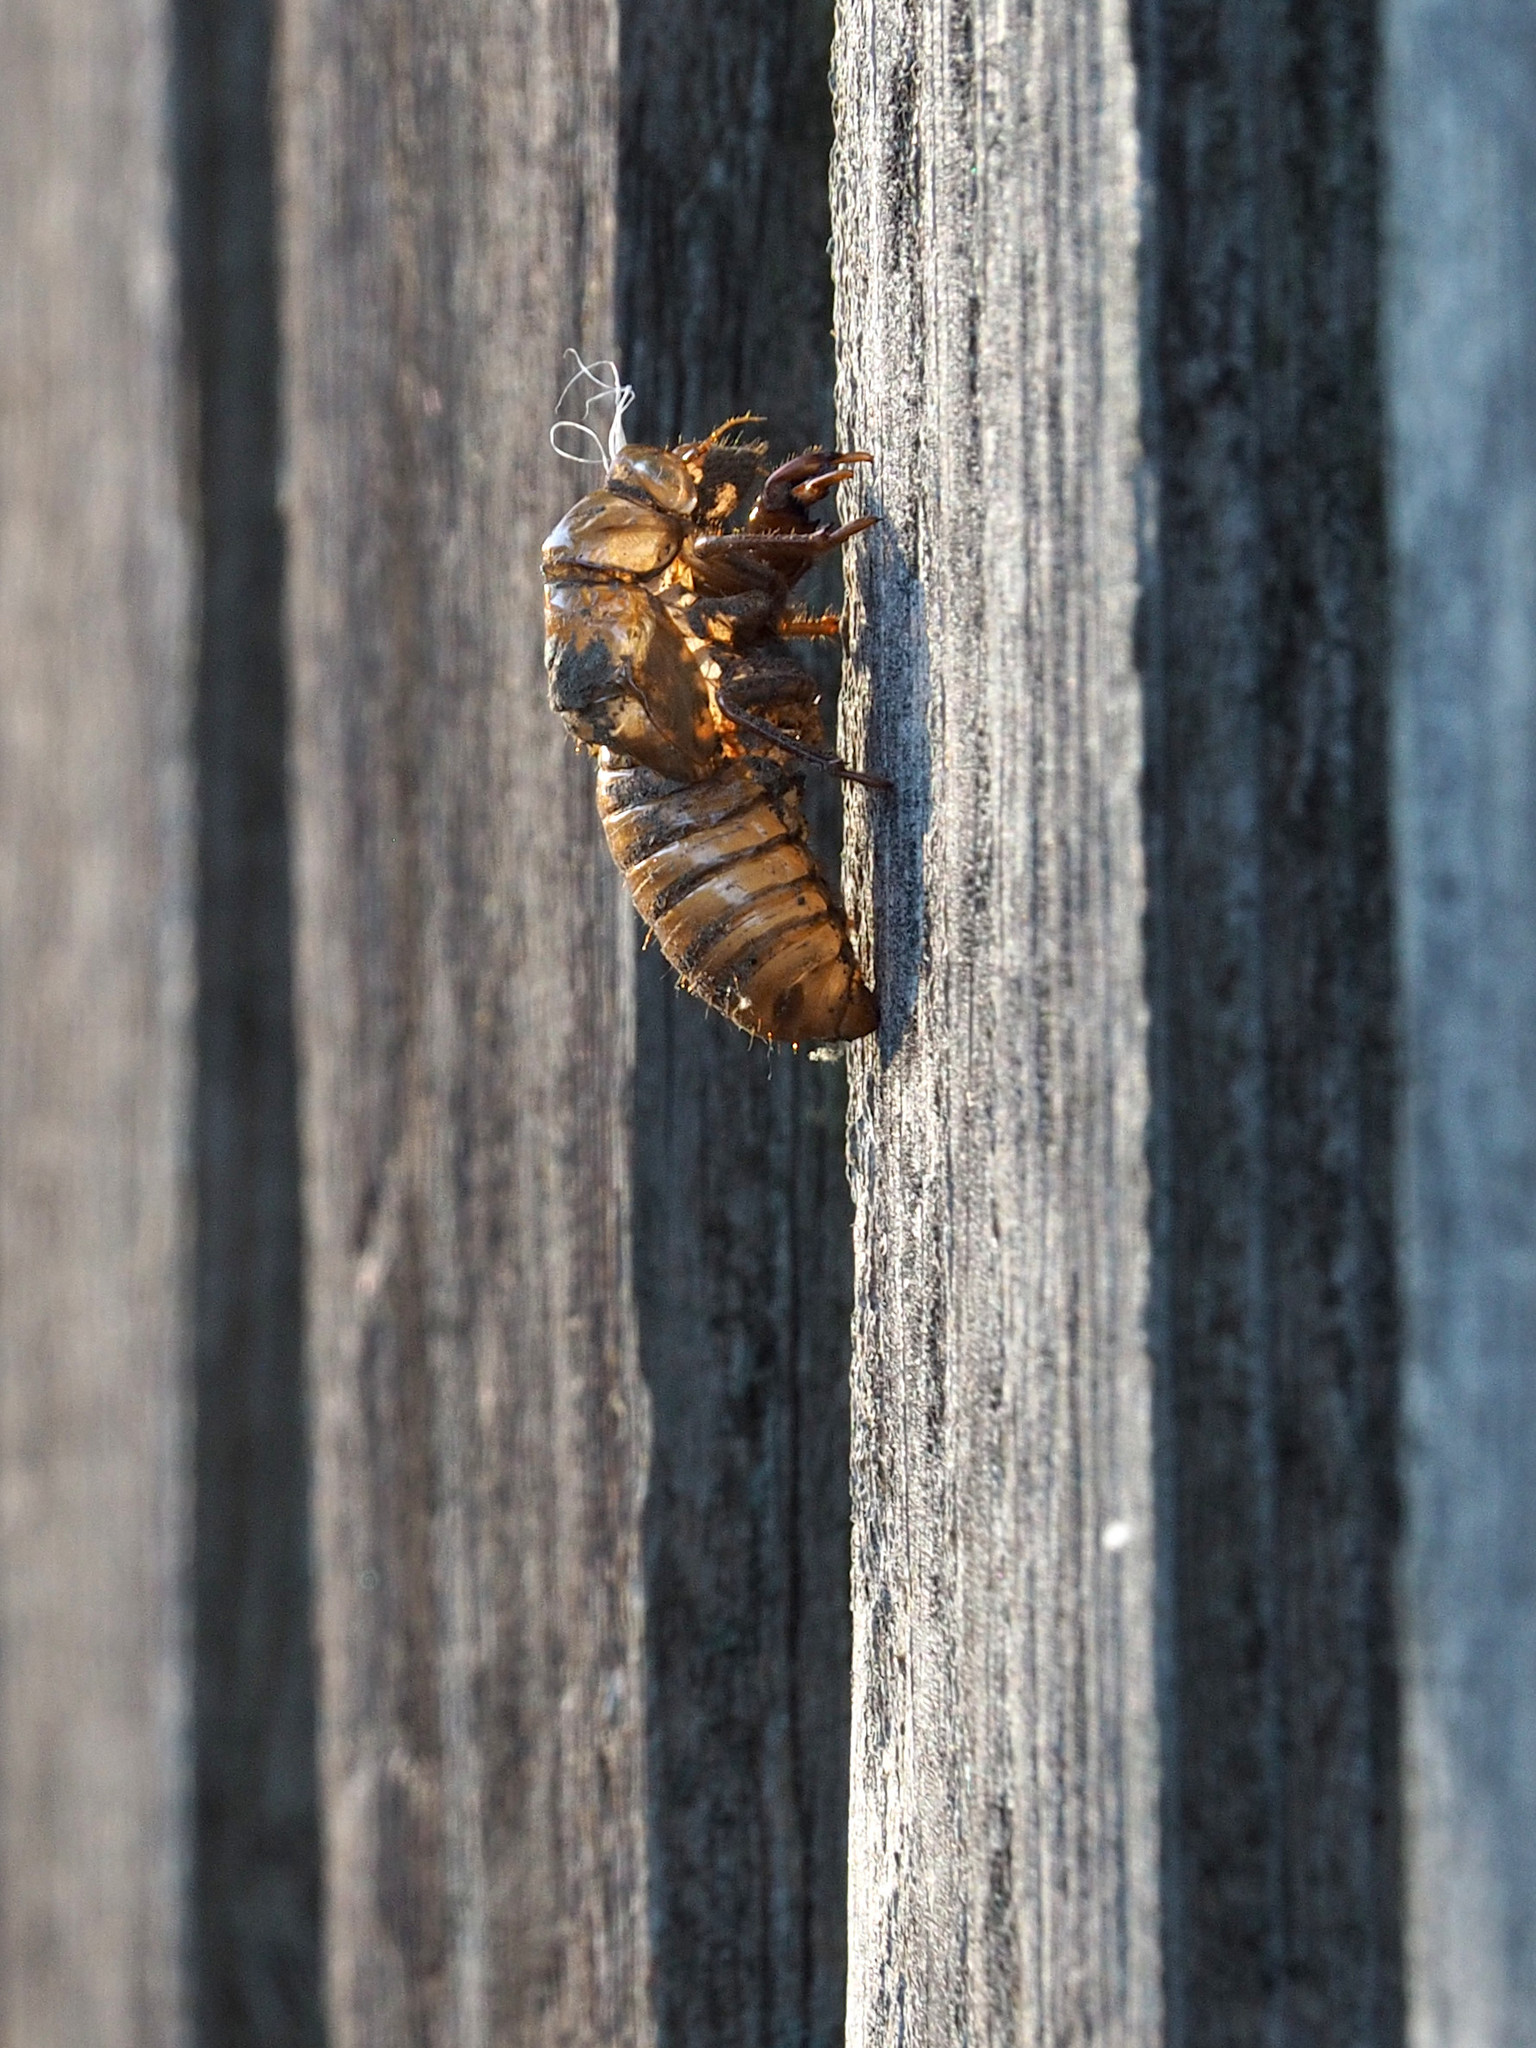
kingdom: Animalia
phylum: Arthropoda
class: Insecta
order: Hemiptera
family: Cicadidae
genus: Magicicada
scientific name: Magicicada
